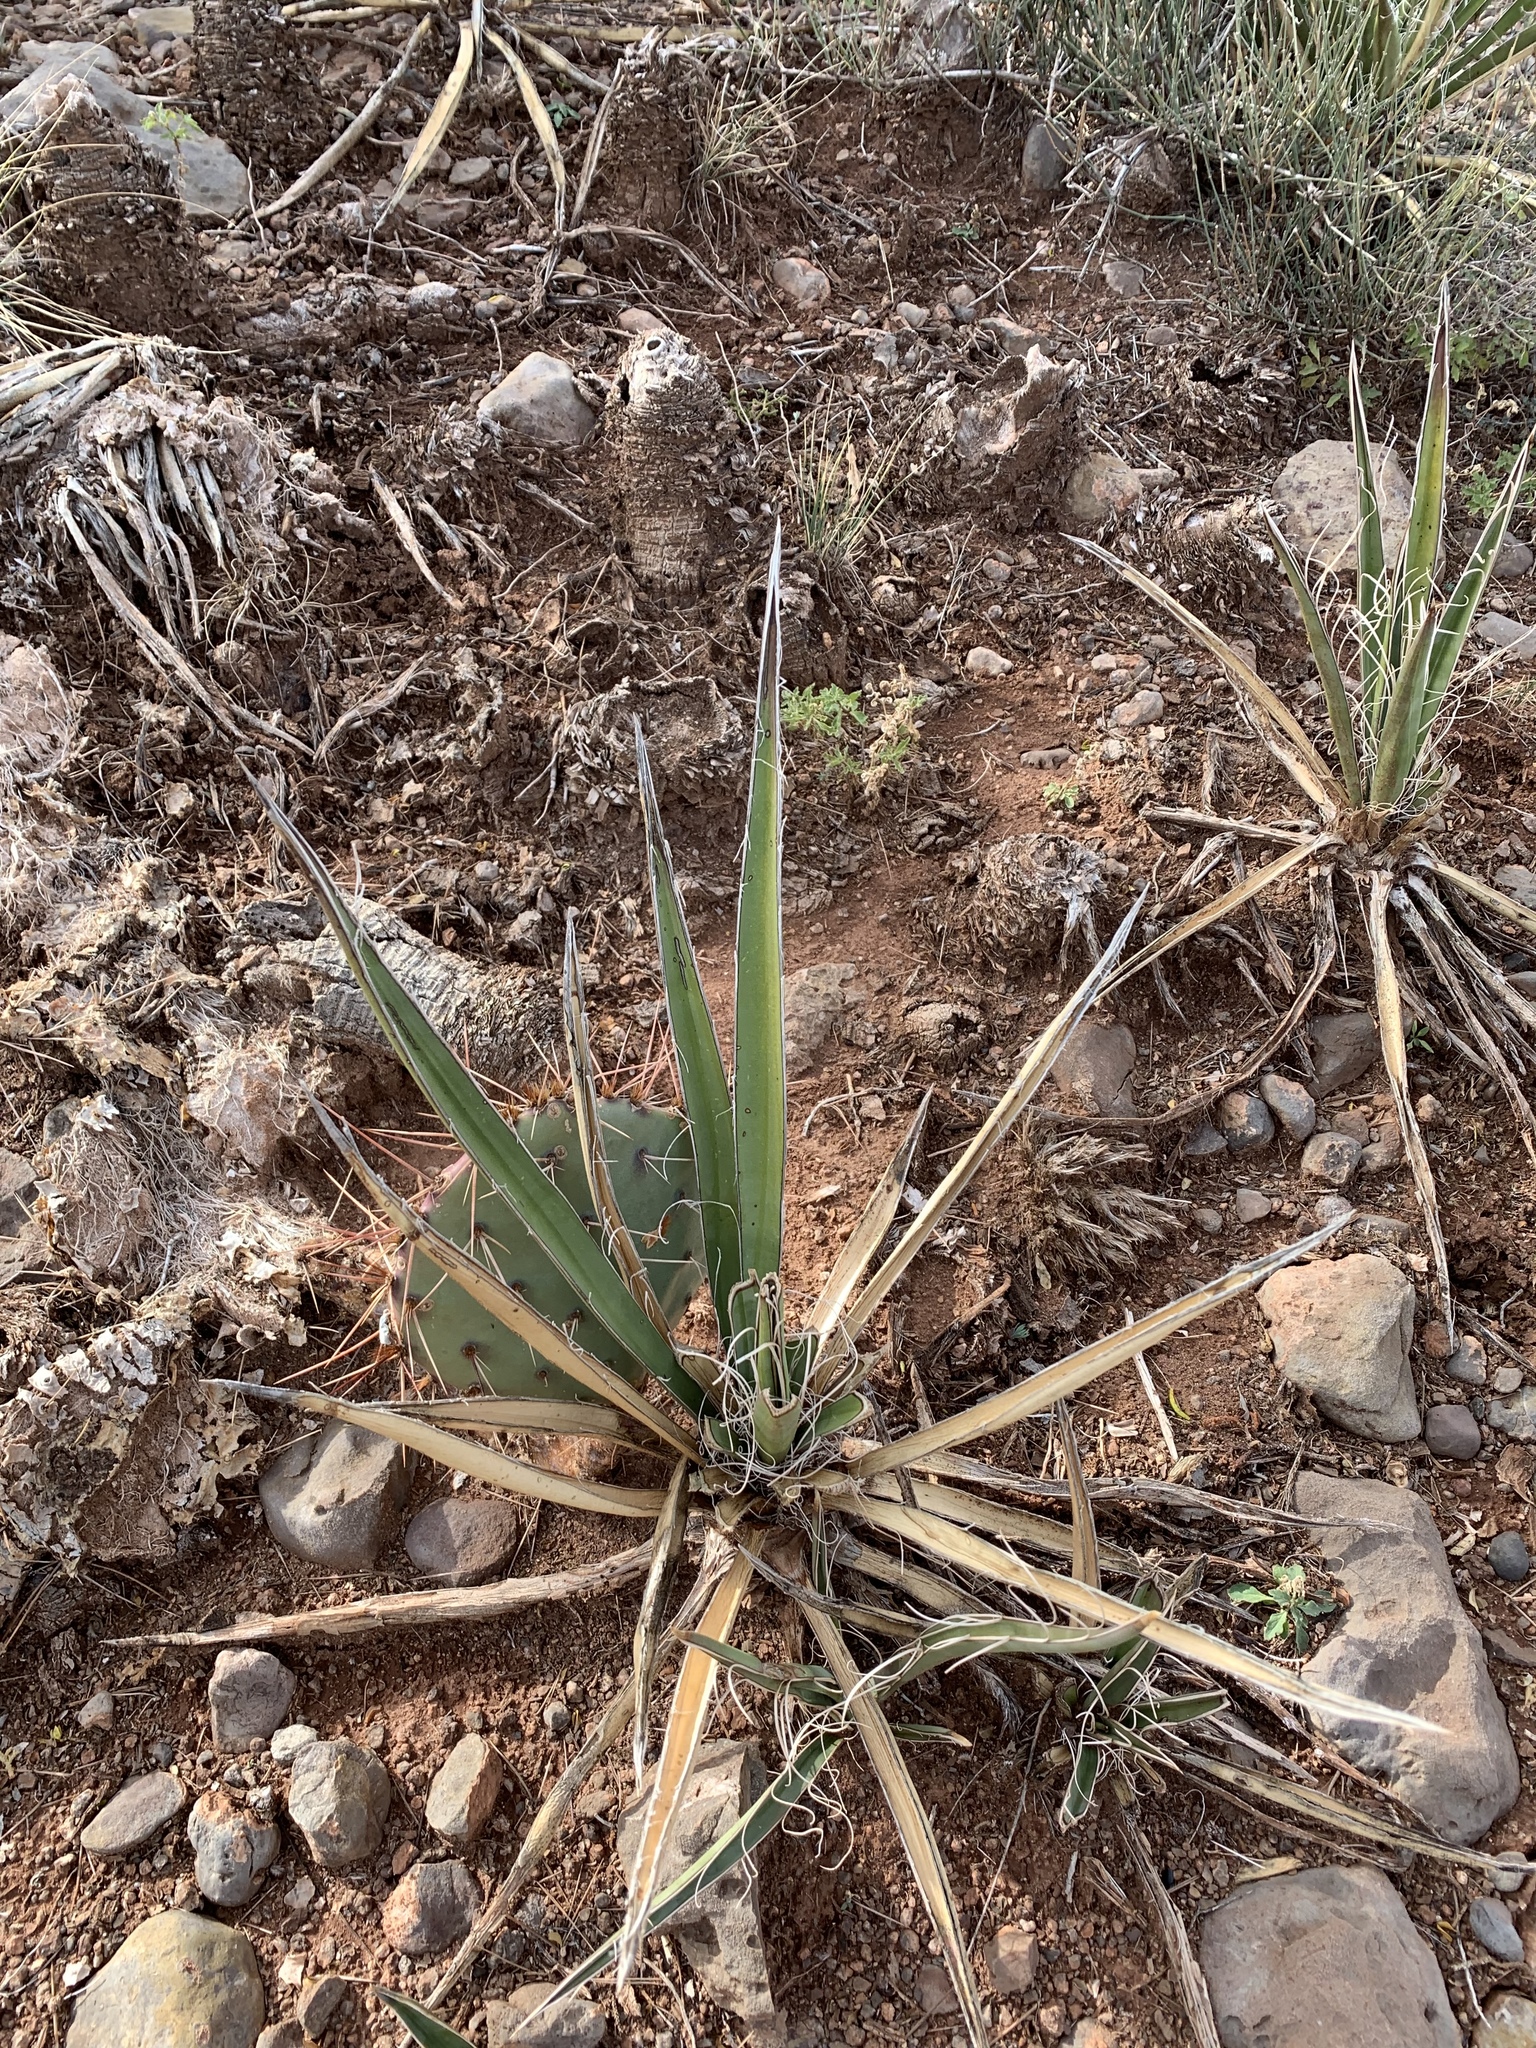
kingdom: Plantae
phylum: Tracheophyta
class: Liliopsida
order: Asparagales
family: Asparagaceae
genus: Yucca
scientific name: Yucca baccata
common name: Banana yucca
